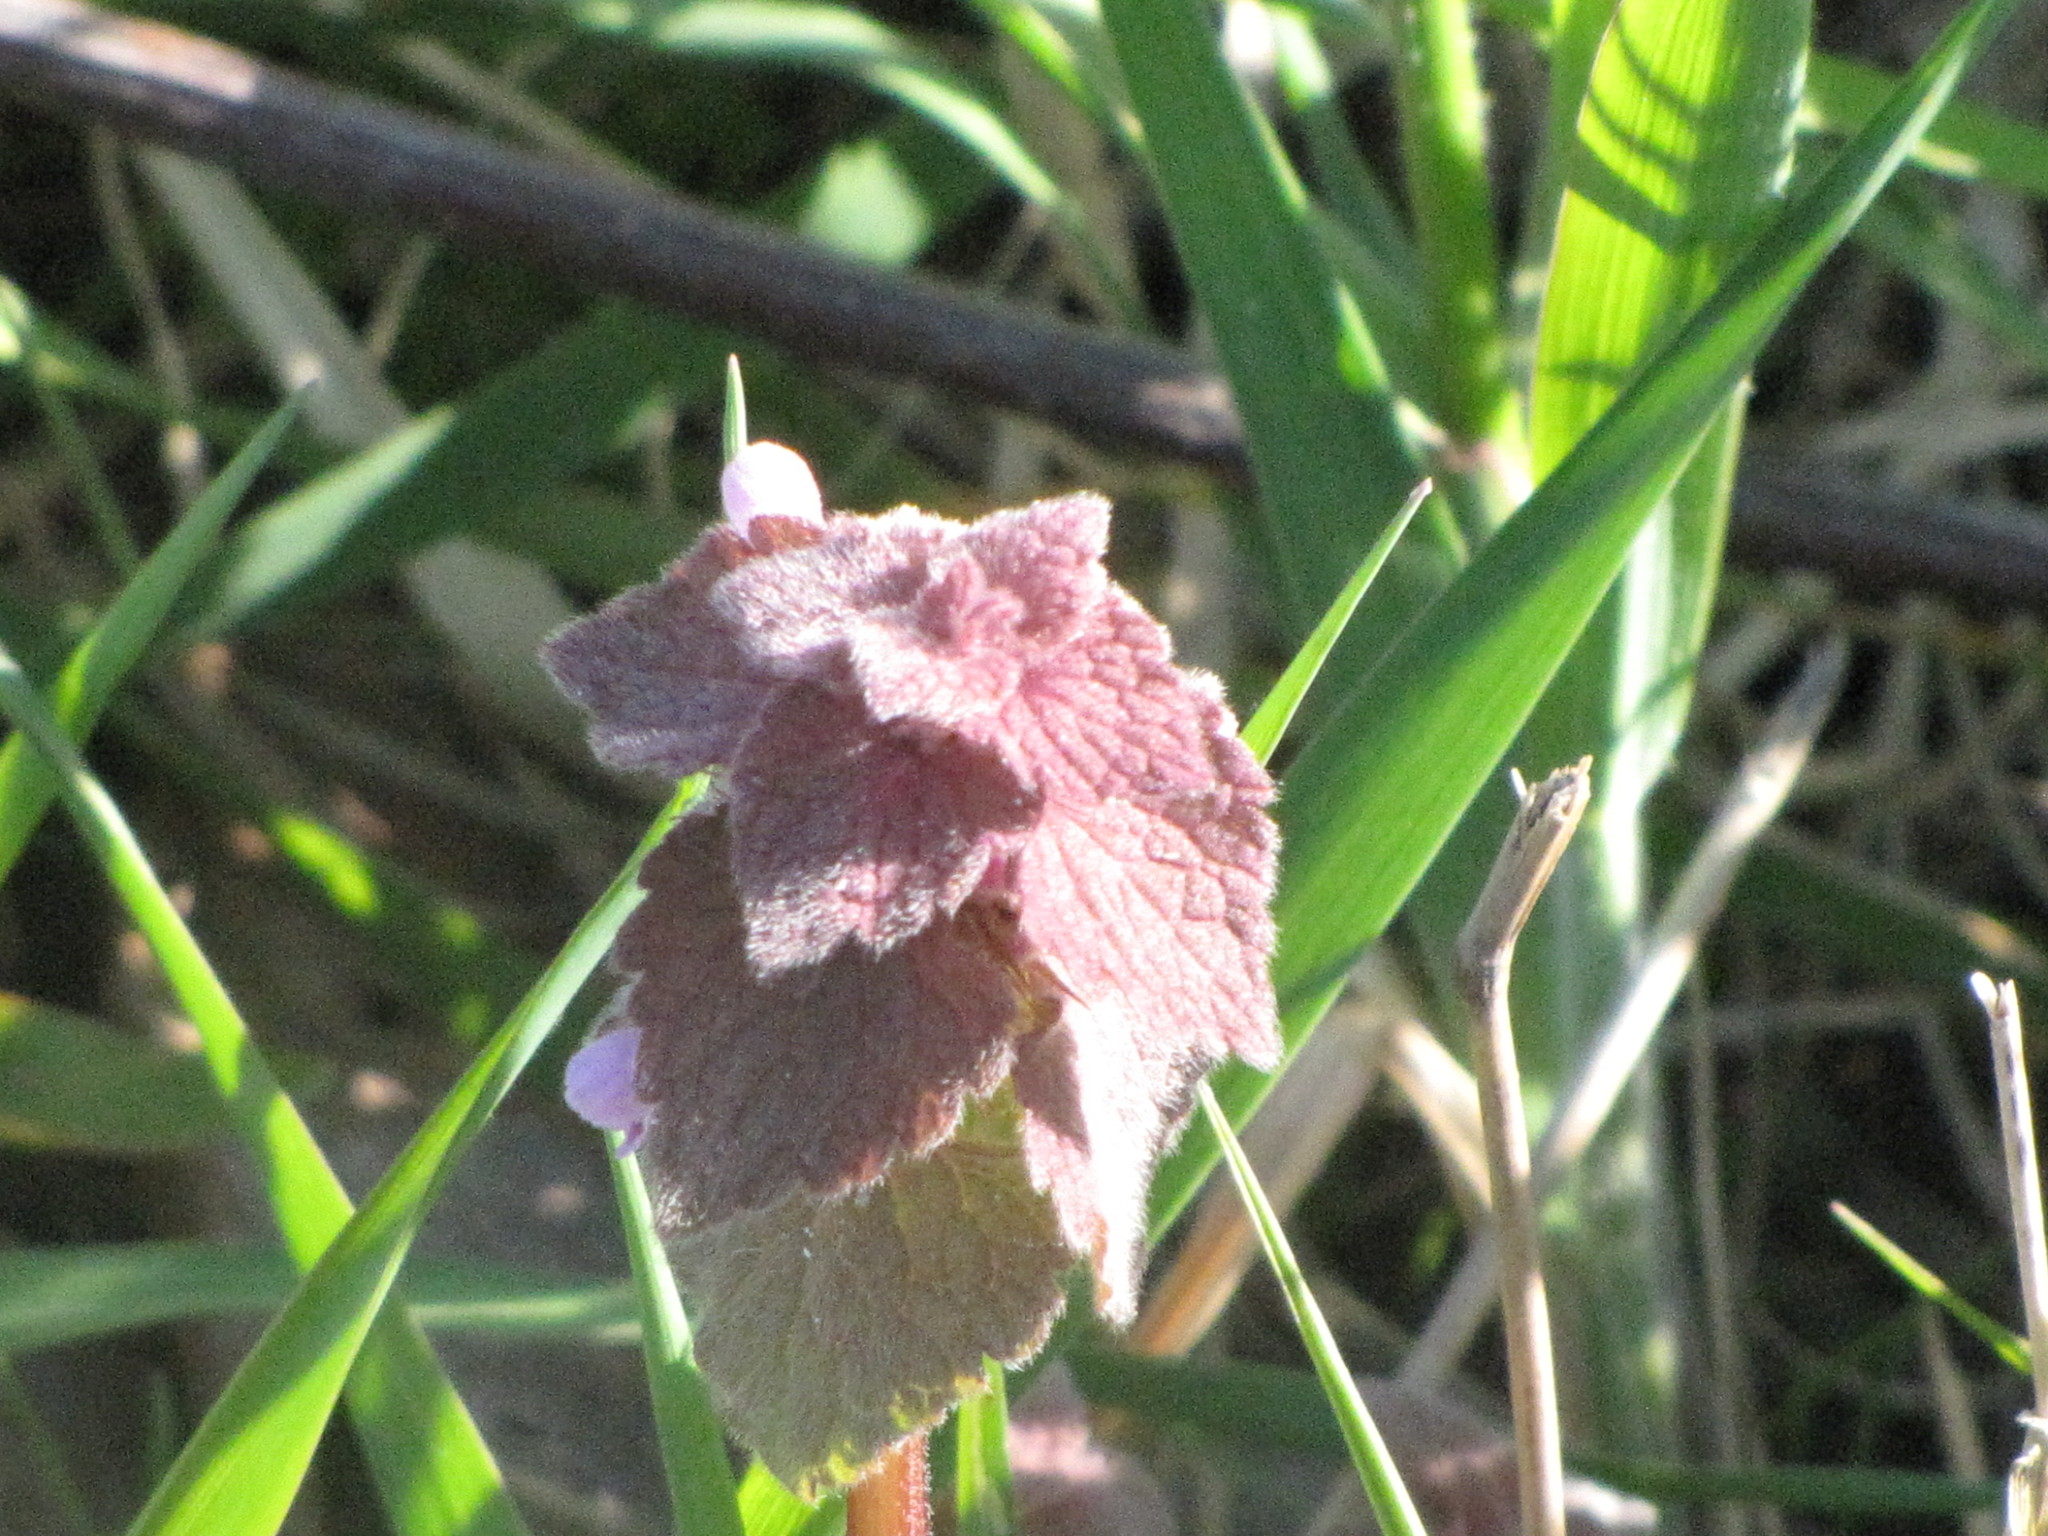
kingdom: Plantae
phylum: Tracheophyta
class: Magnoliopsida
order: Lamiales
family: Lamiaceae
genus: Lamium
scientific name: Lamium purpureum
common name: Red dead-nettle
